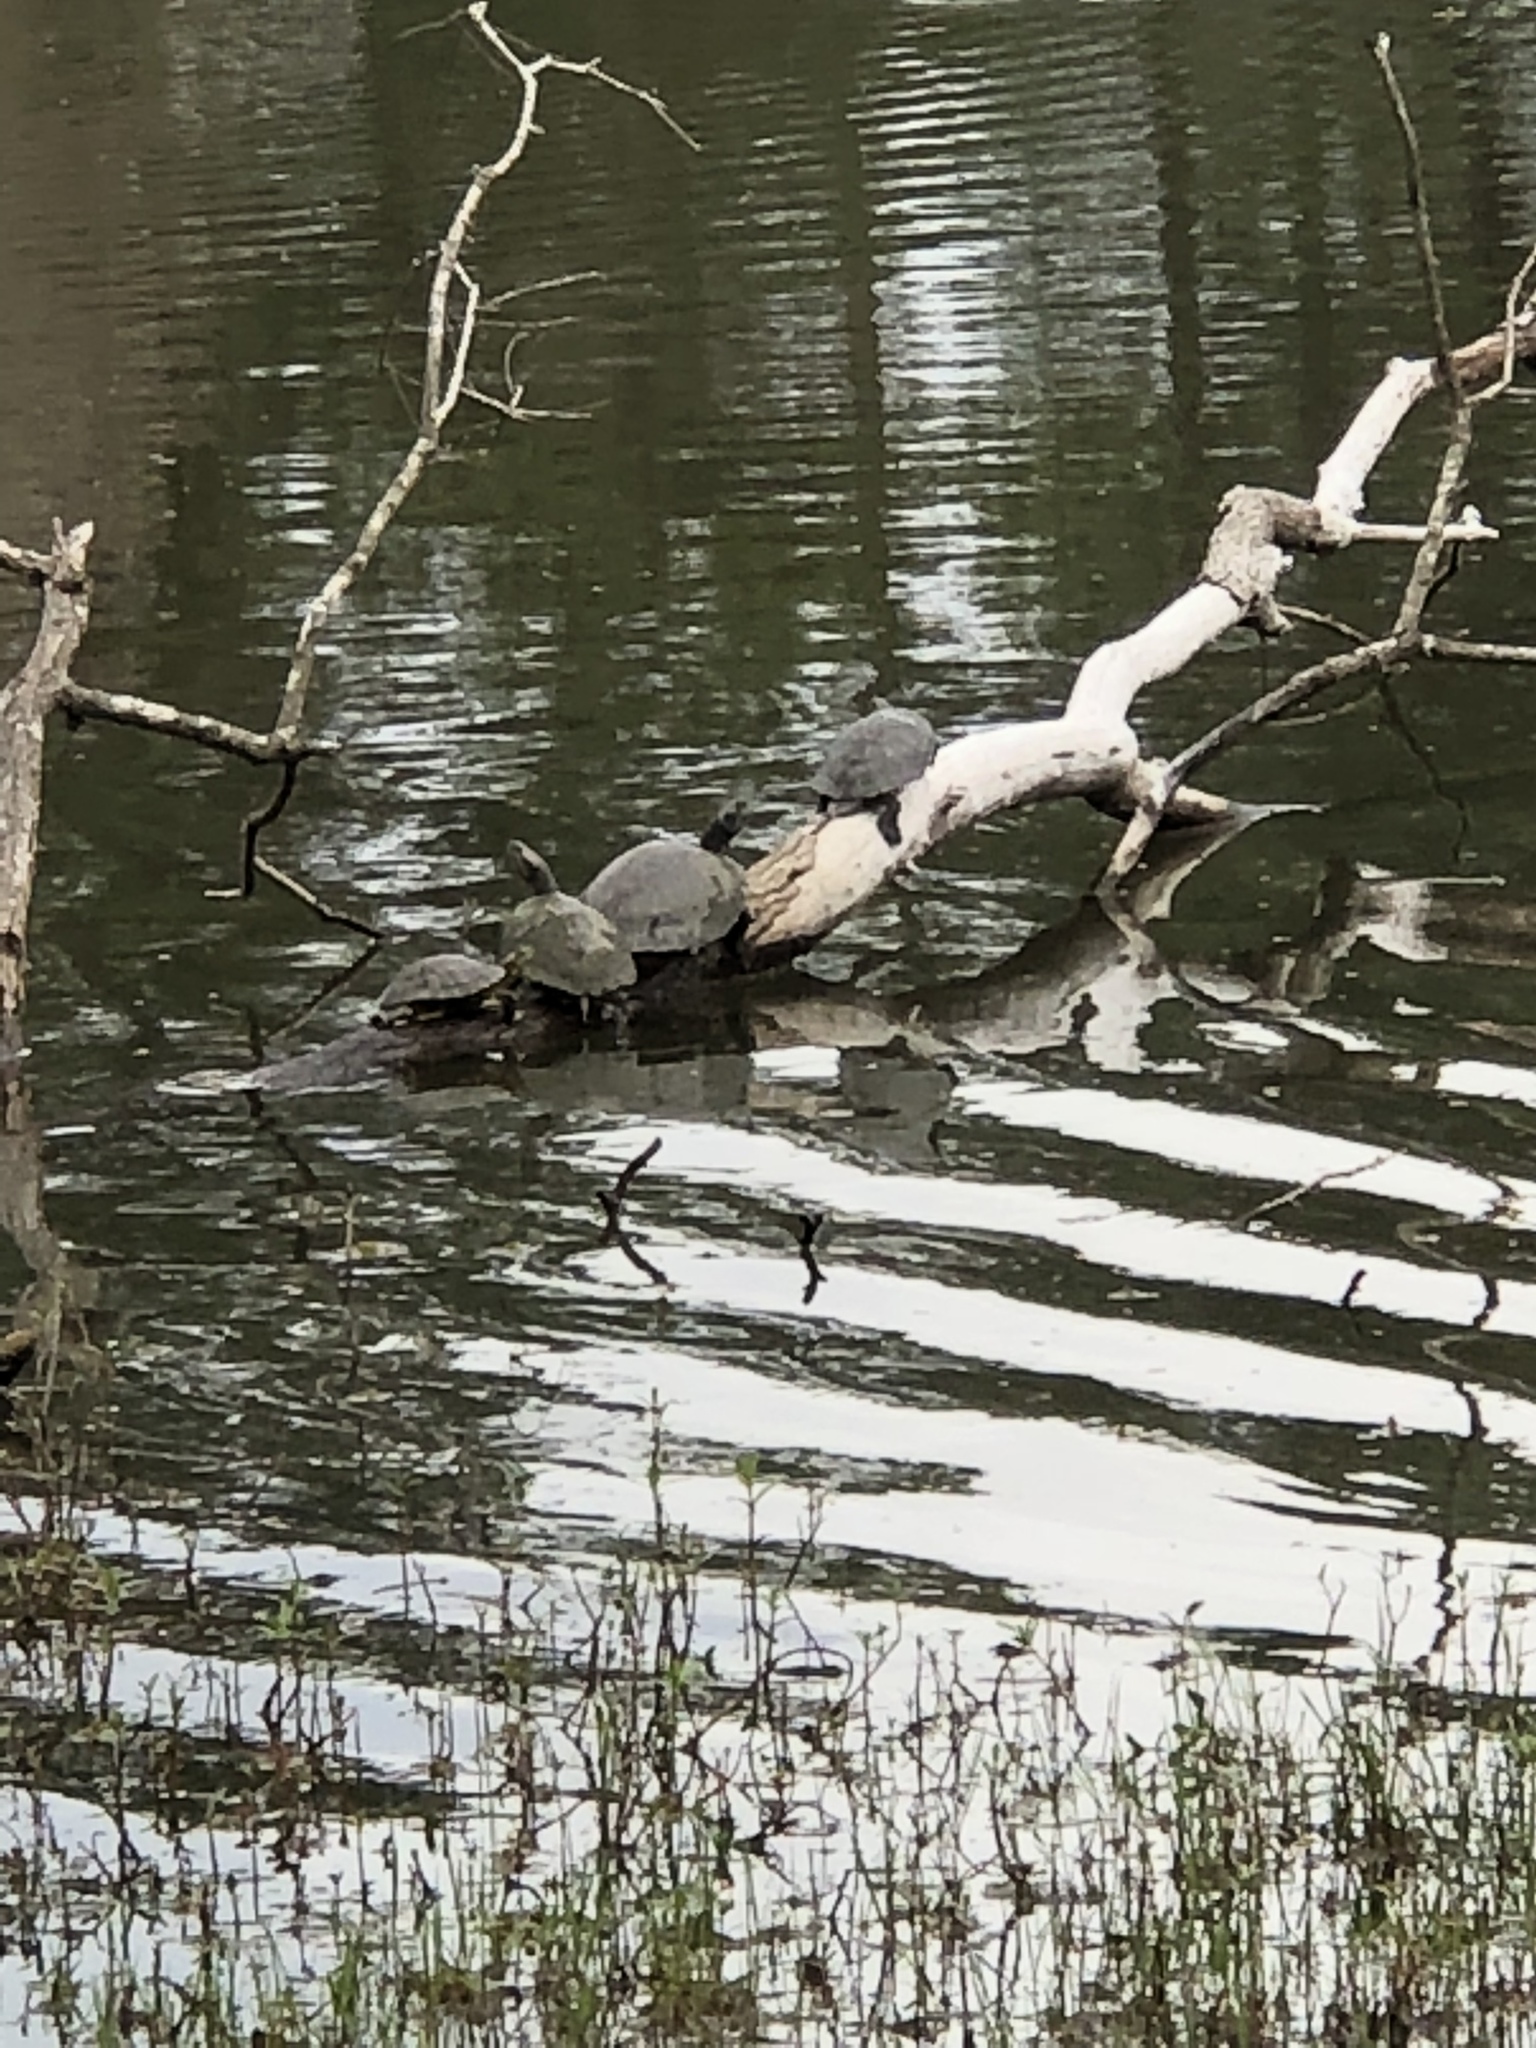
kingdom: Animalia
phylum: Chordata
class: Testudines
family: Emydidae
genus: Trachemys
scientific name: Trachemys scripta
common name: Slider
